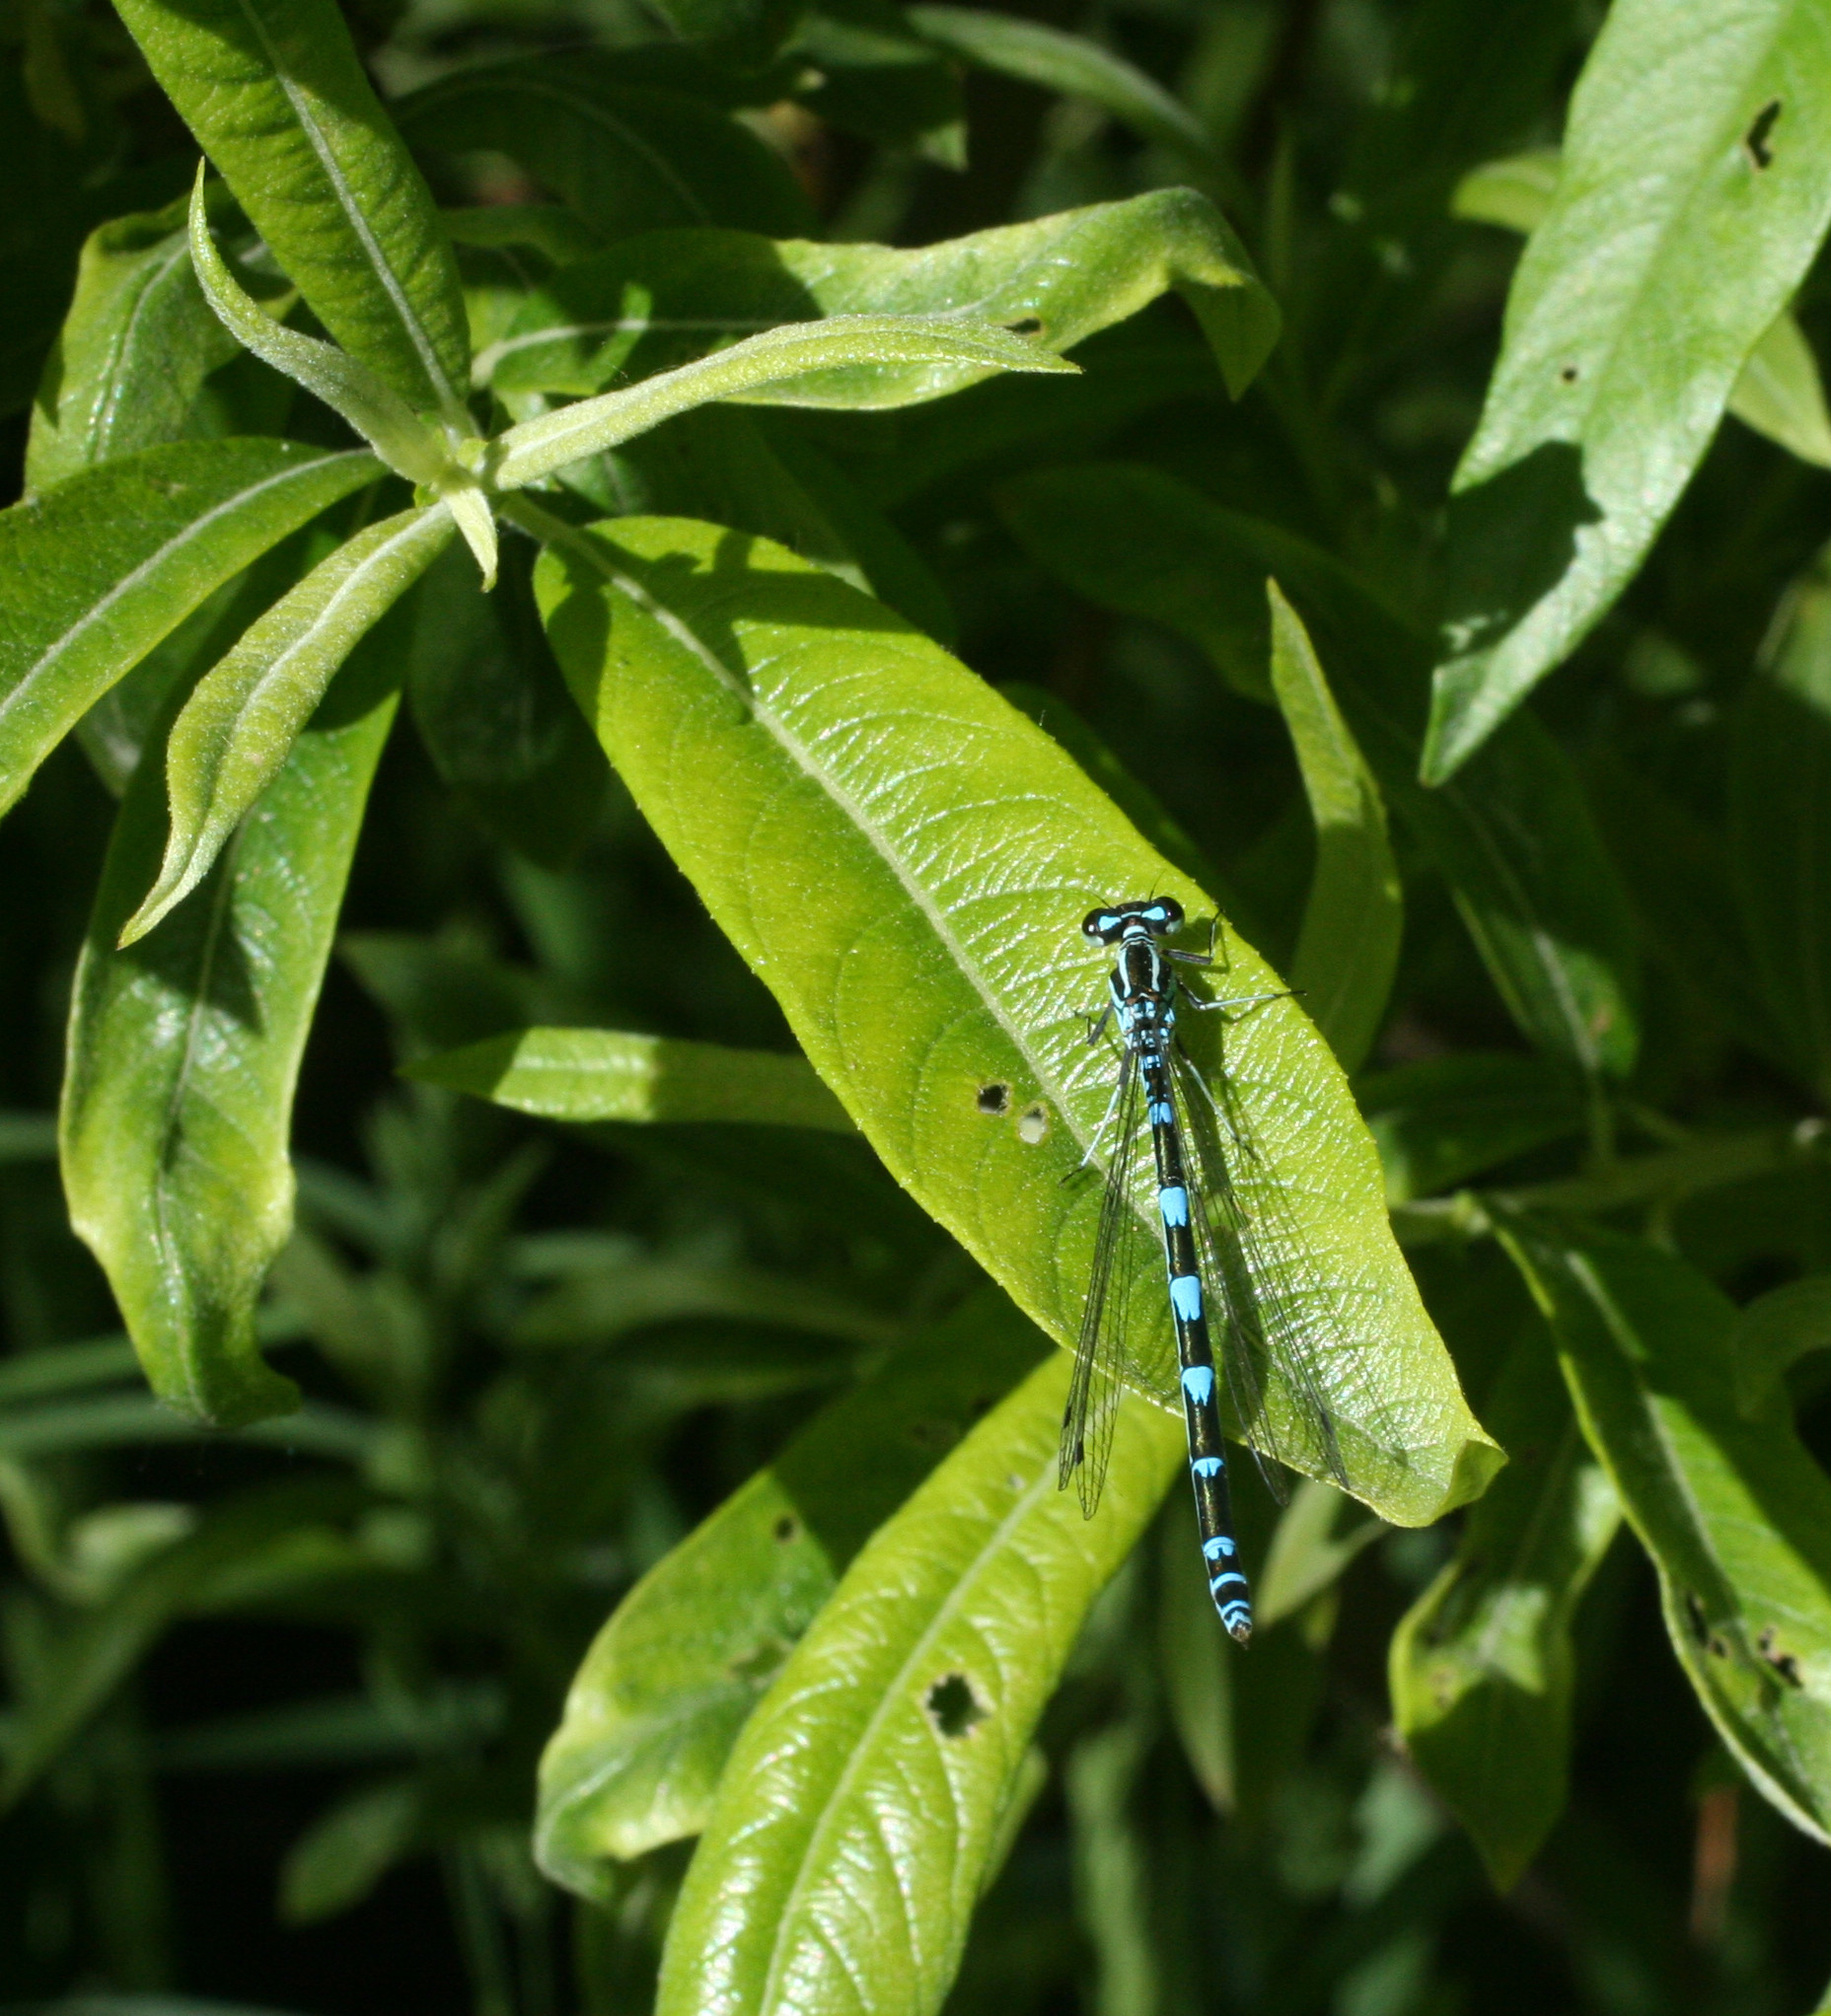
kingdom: Animalia
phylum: Arthropoda
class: Insecta
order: Odonata
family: Coenagrionidae
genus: Coenagrion
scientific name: Coenagrion puella
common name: Azure damselfly
